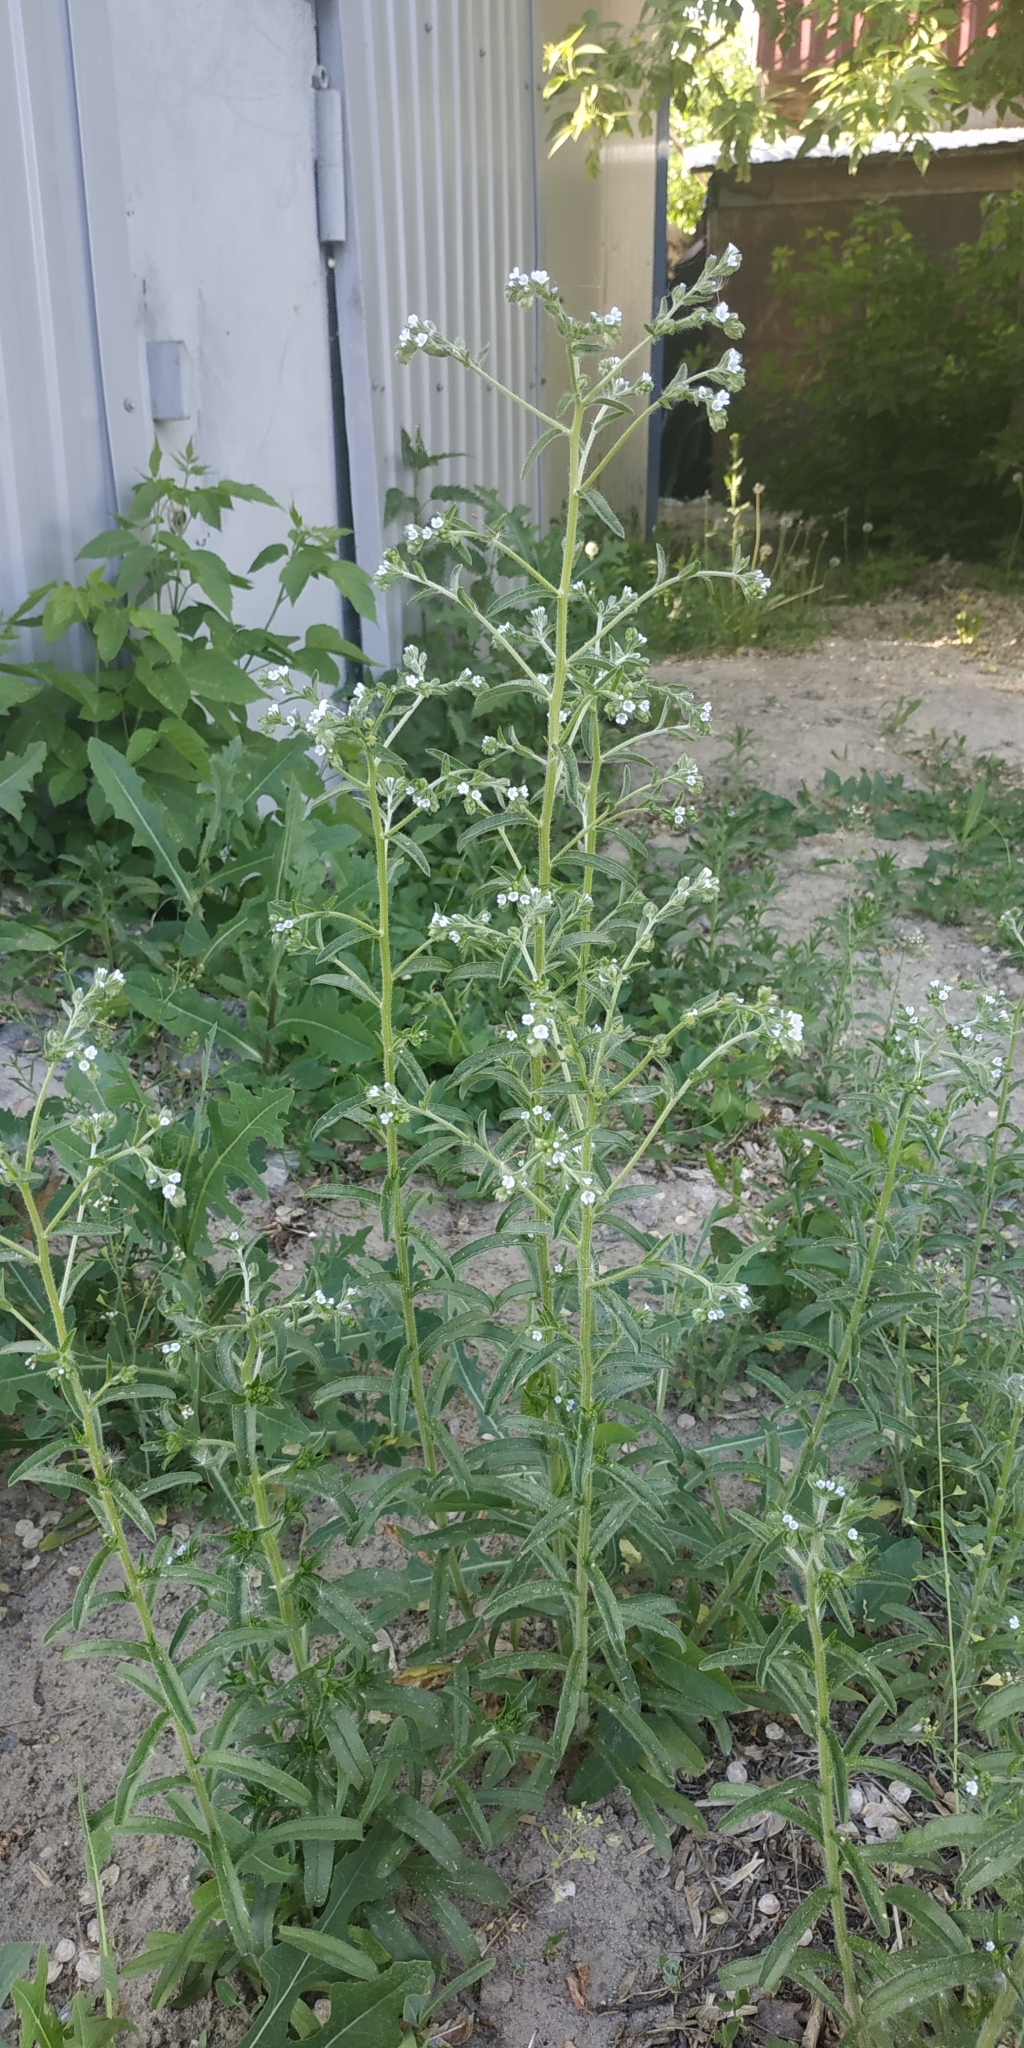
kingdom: Plantae
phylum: Tracheophyta
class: Magnoliopsida
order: Boraginales
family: Boraginaceae
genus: Lappula
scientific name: Lappula squarrosa
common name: European stickseed
